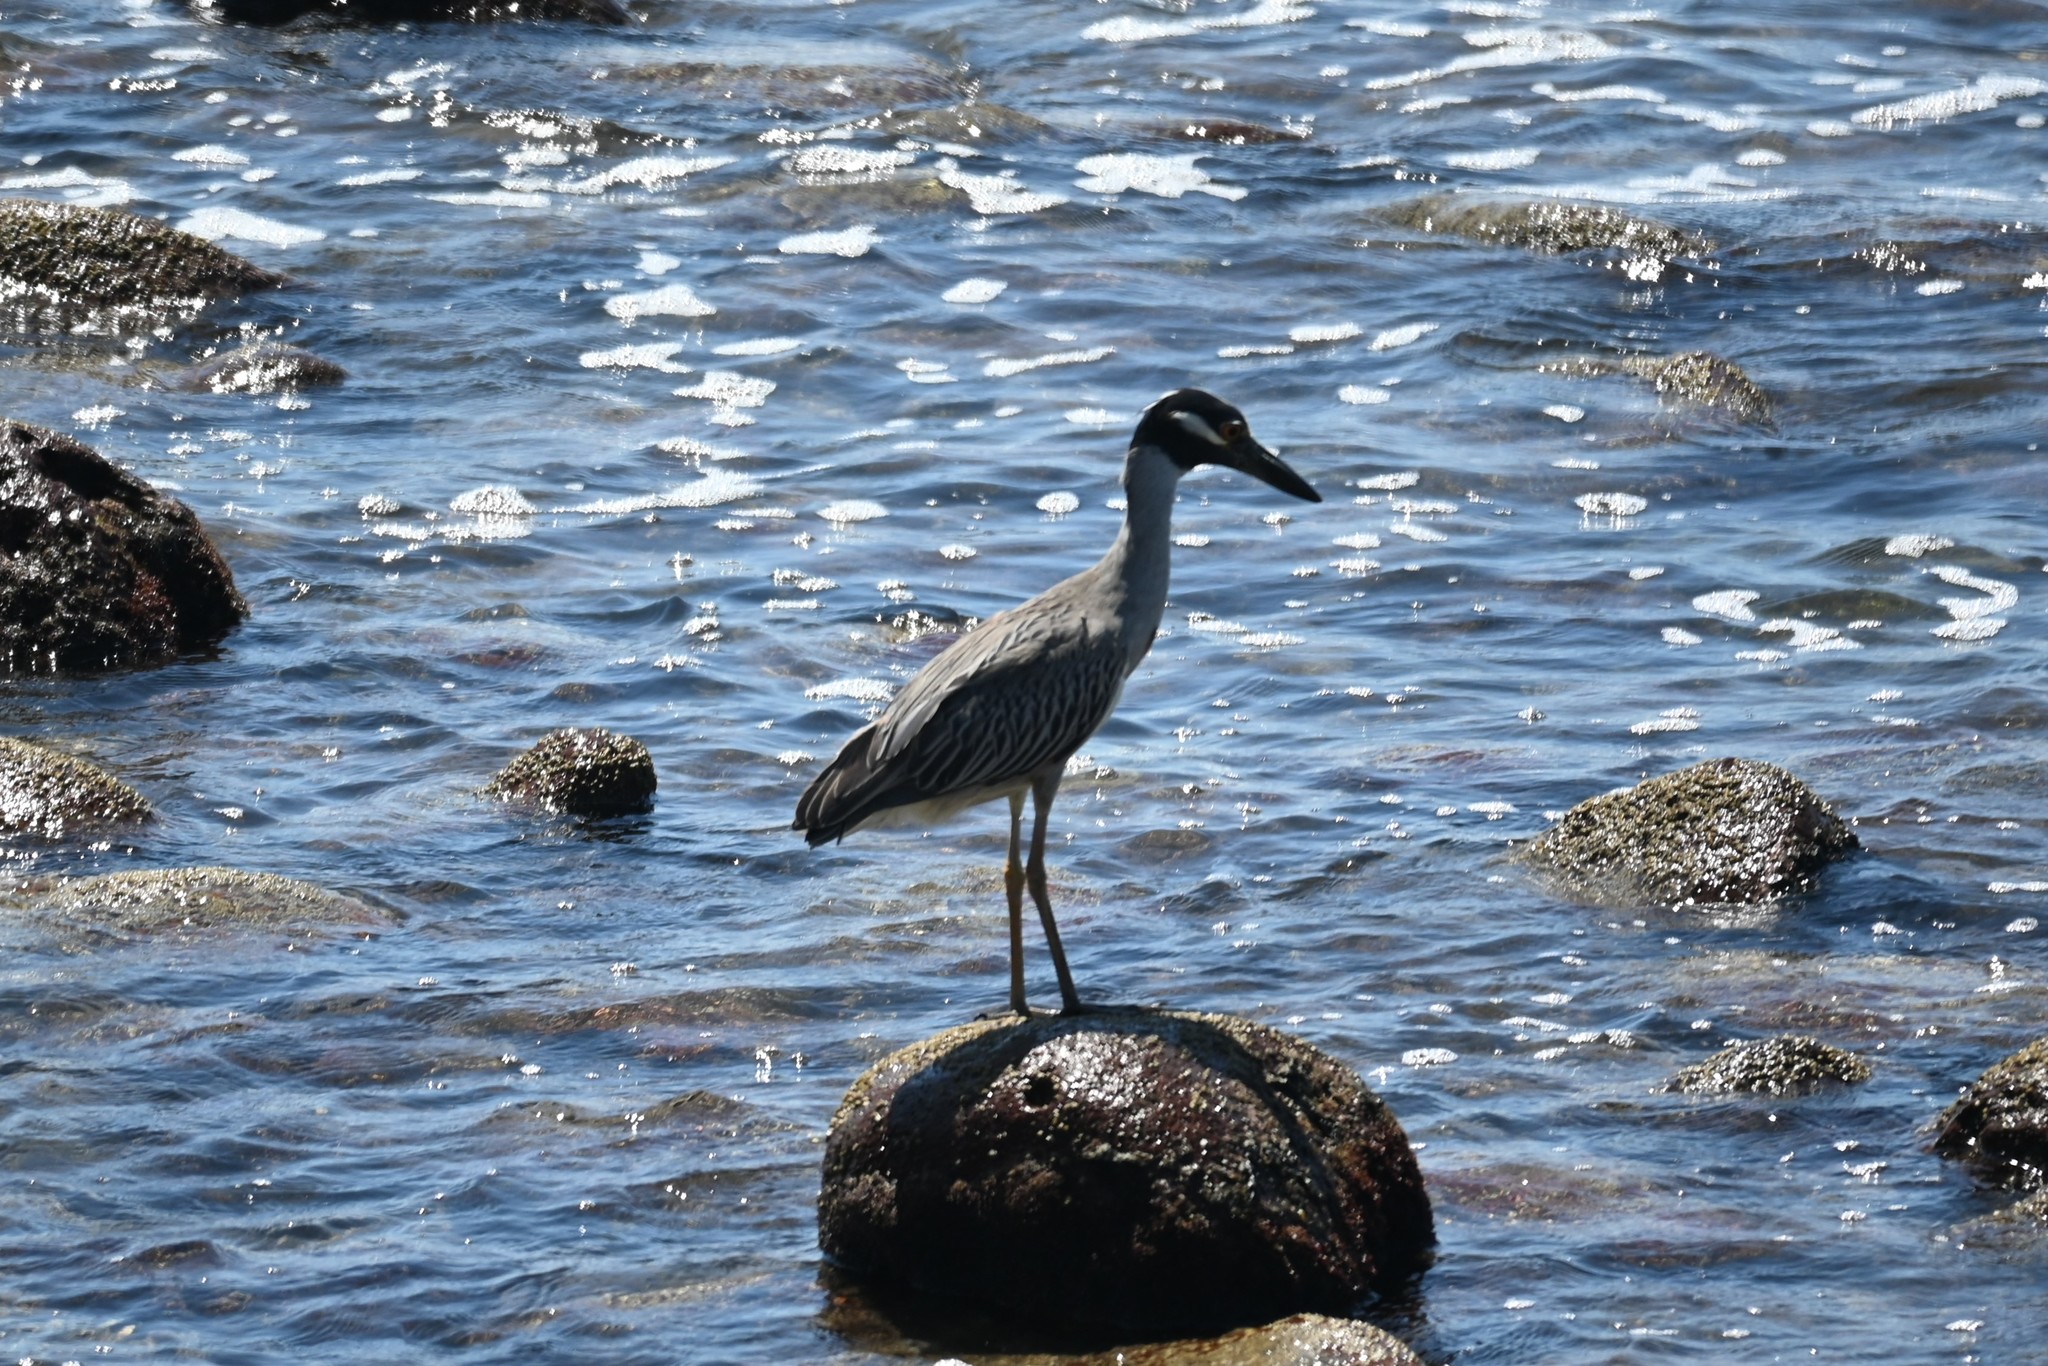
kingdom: Animalia
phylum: Chordata
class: Aves
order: Pelecaniformes
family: Ardeidae
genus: Nyctanassa
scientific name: Nyctanassa violacea
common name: Yellow-crowned night heron
